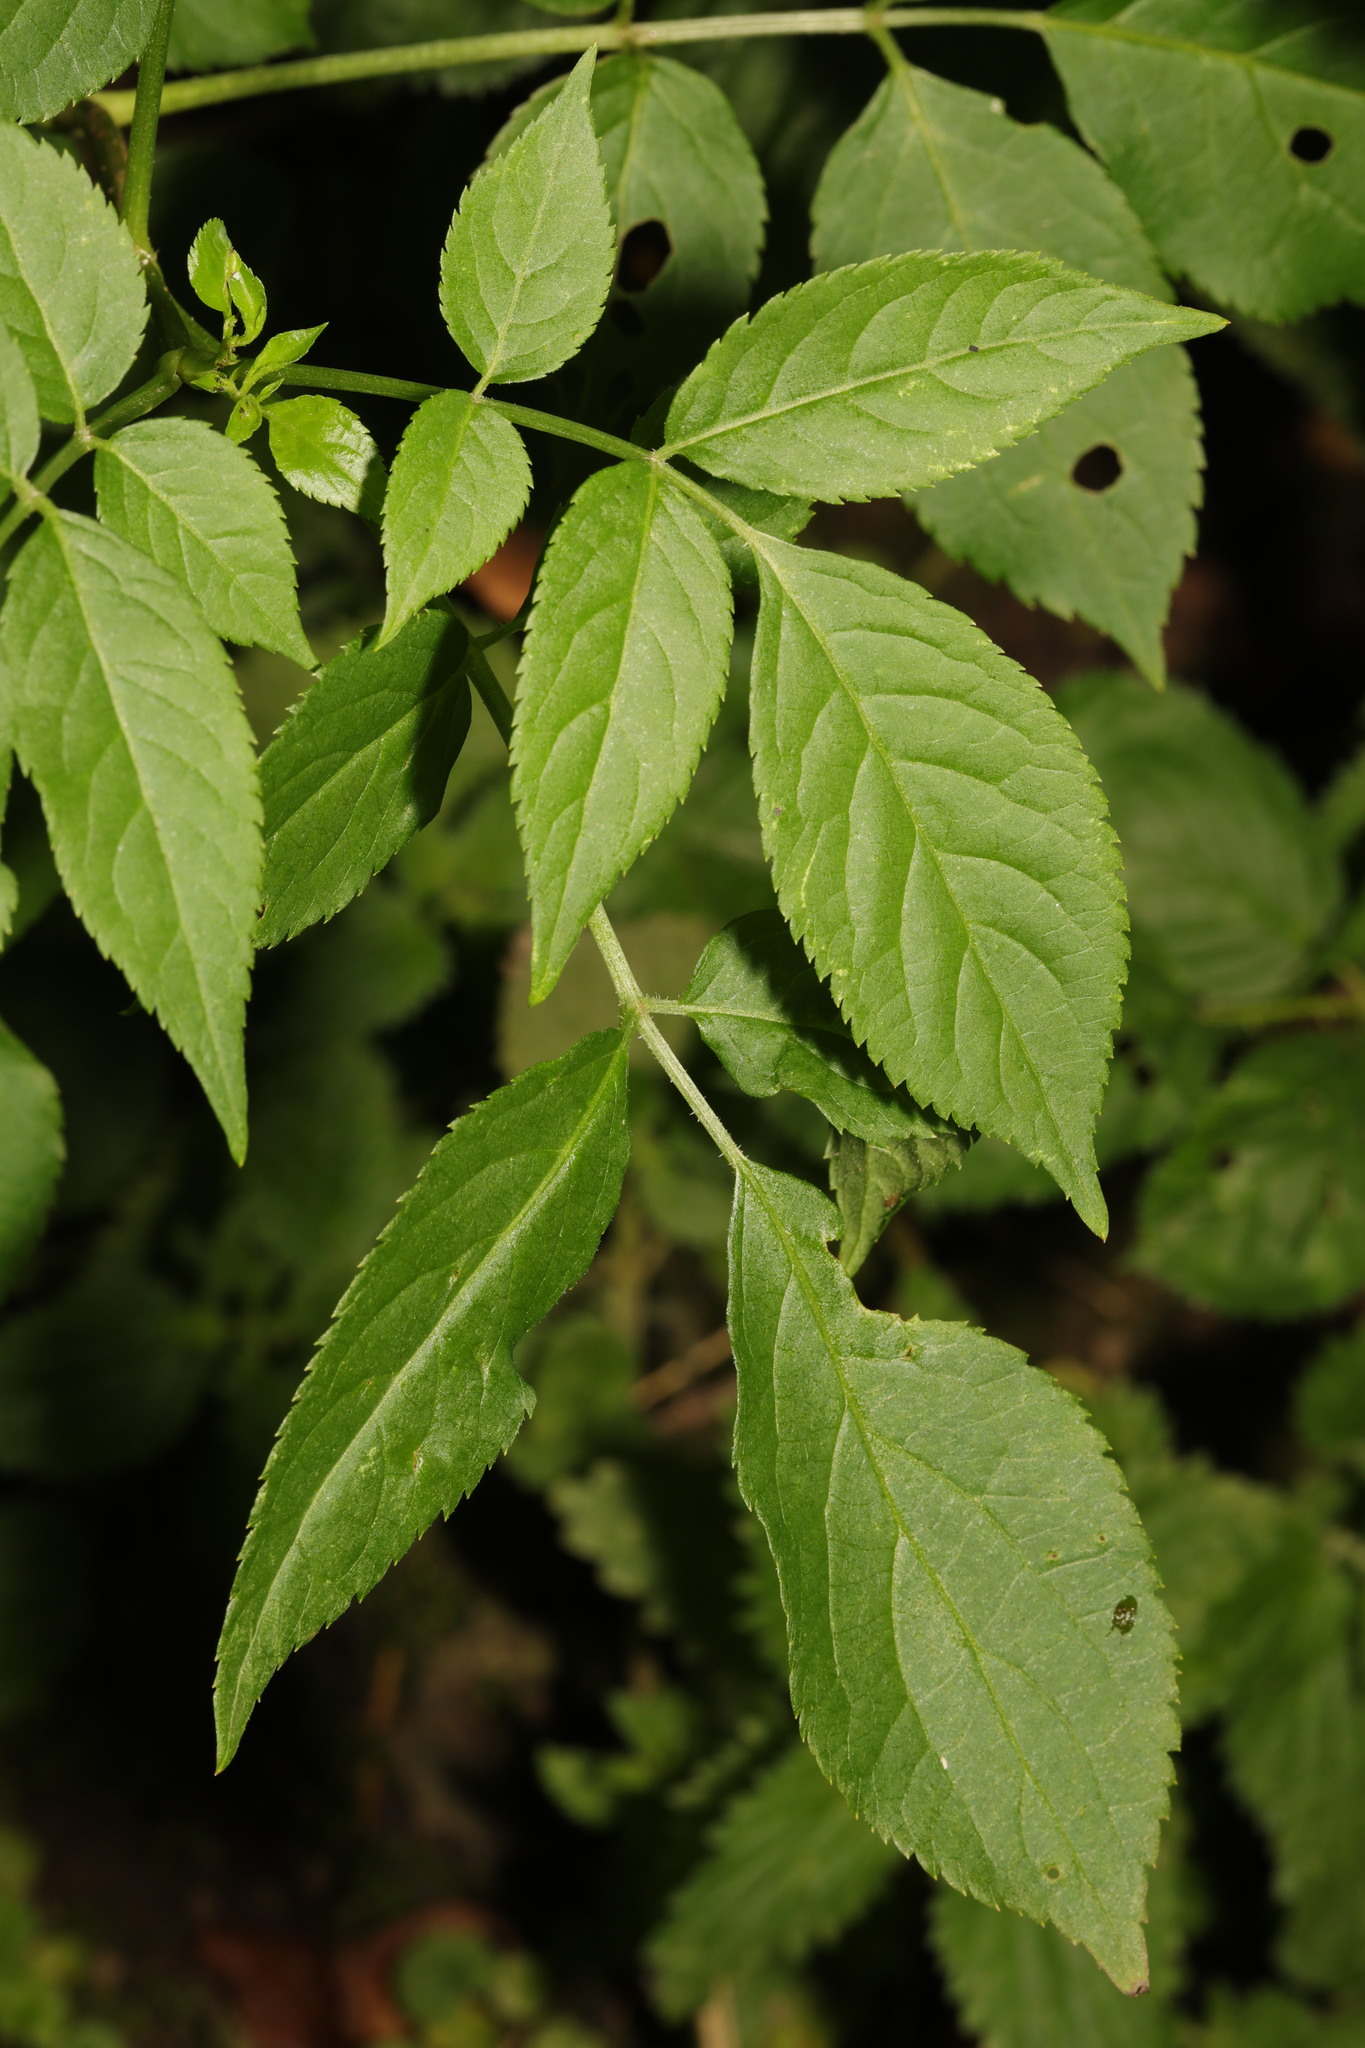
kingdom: Plantae
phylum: Tracheophyta
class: Magnoliopsida
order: Dipsacales
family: Viburnaceae
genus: Sambucus
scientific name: Sambucus nigra
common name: Elder
